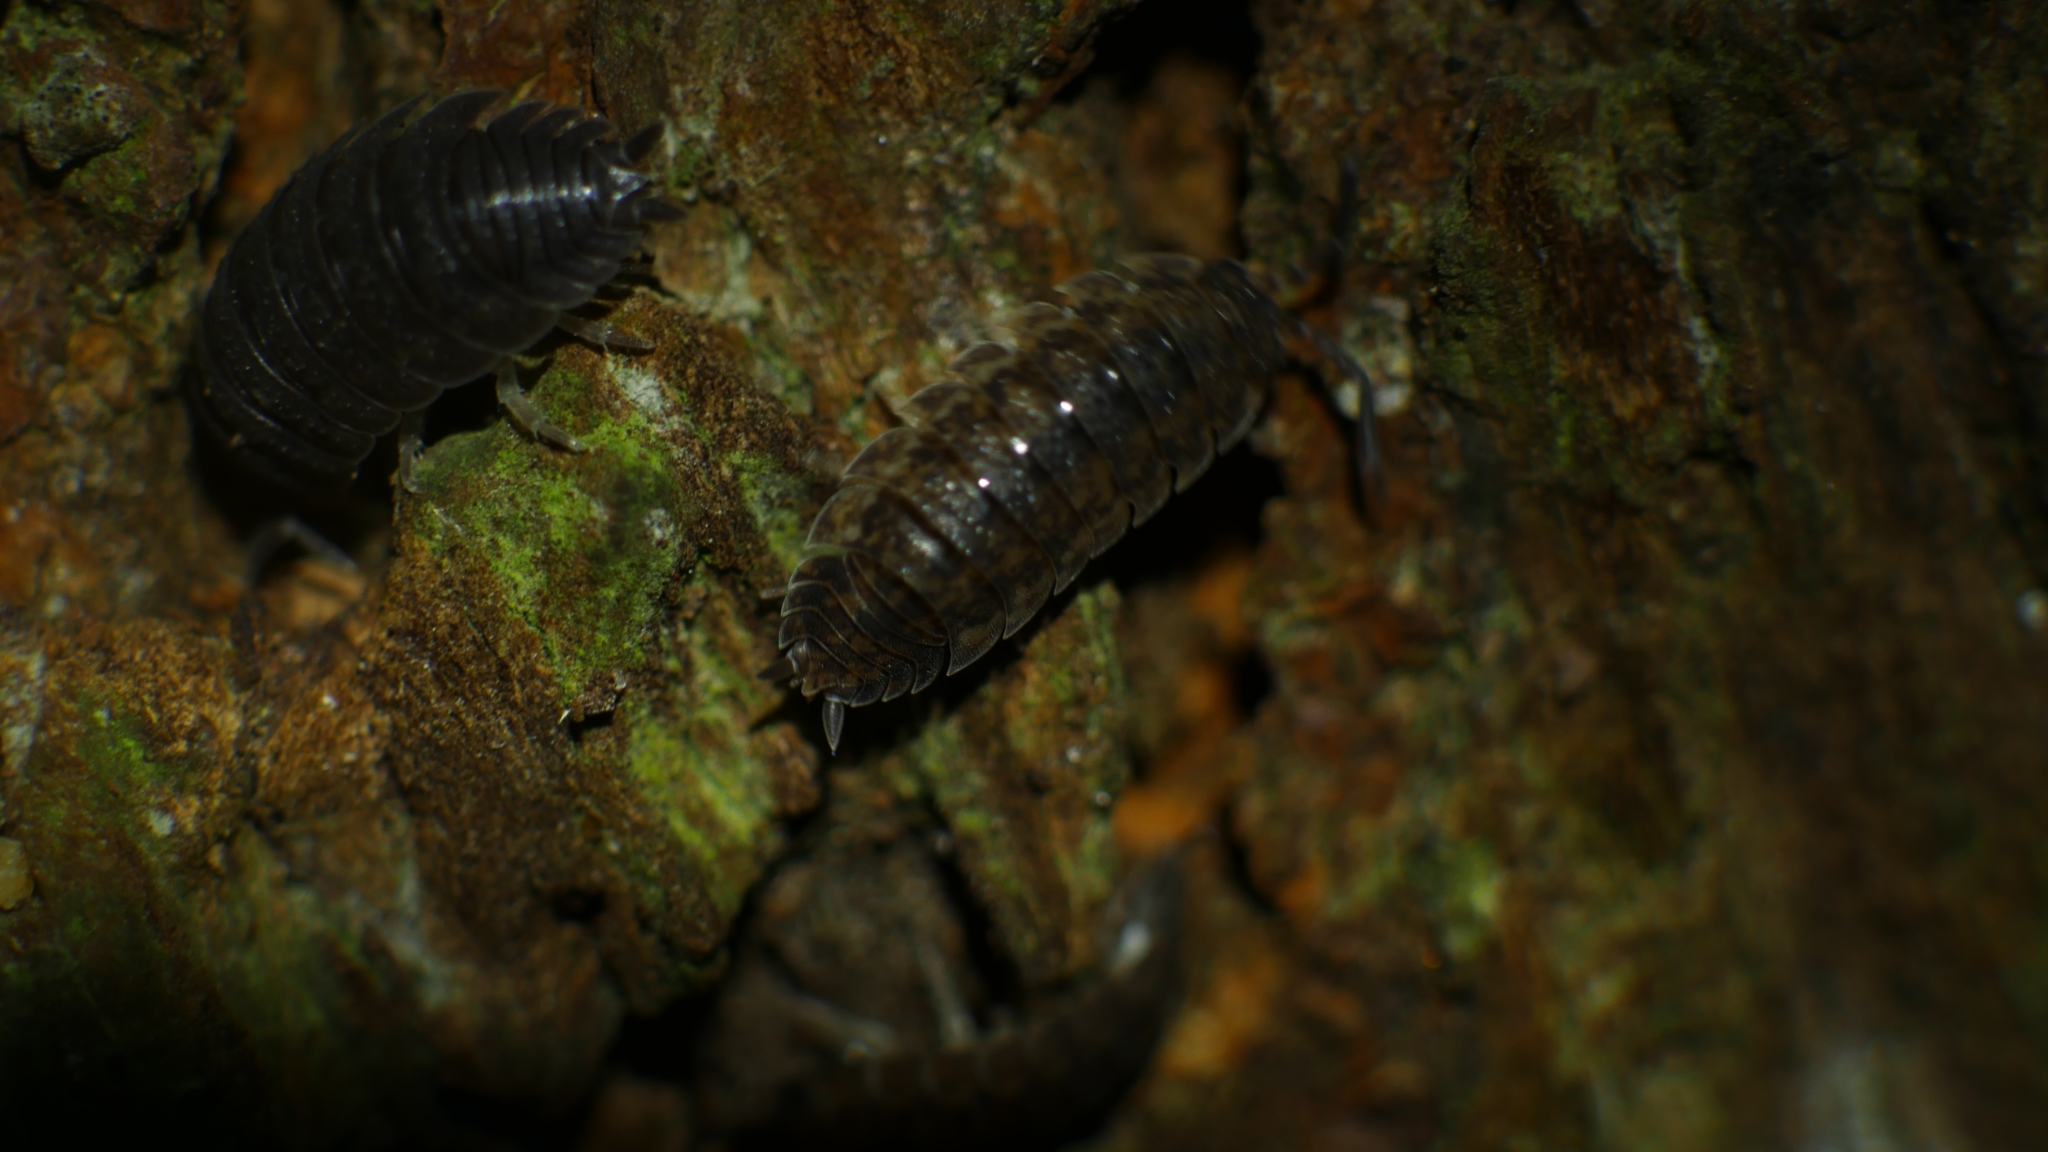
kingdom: Animalia
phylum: Arthropoda
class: Malacostraca
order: Isopoda
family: Porcellionidae
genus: Porcellio
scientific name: Porcellio scaber
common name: Common rough woodlouse
